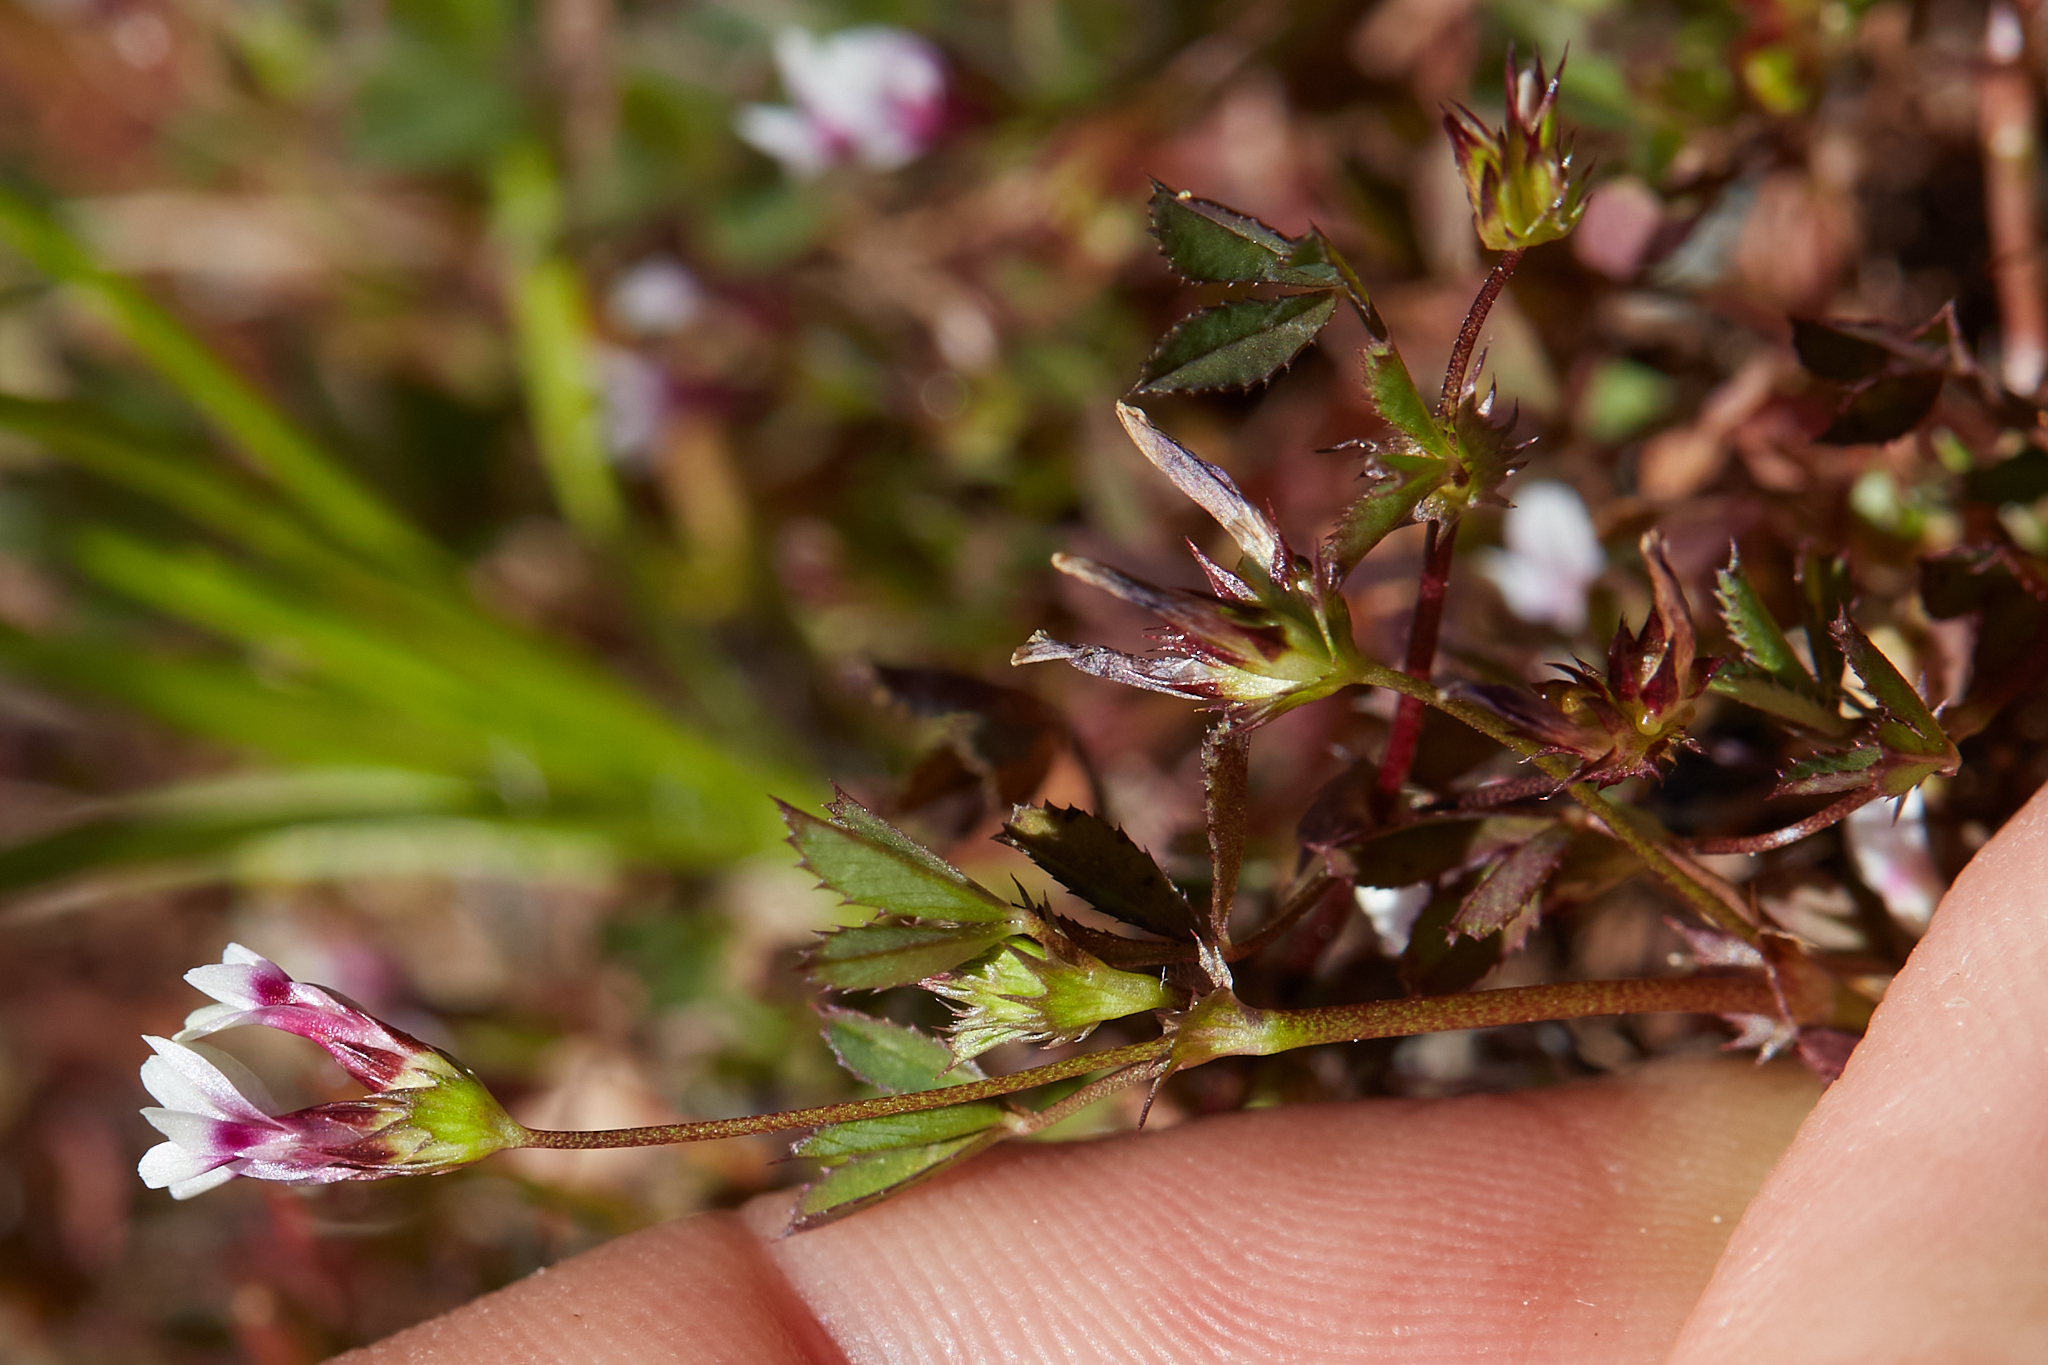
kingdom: Plantae
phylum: Tracheophyta
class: Magnoliopsida
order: Fabales
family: Fabaceae
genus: Trifolium
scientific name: Trifolium variegatum
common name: Whitetip clover
